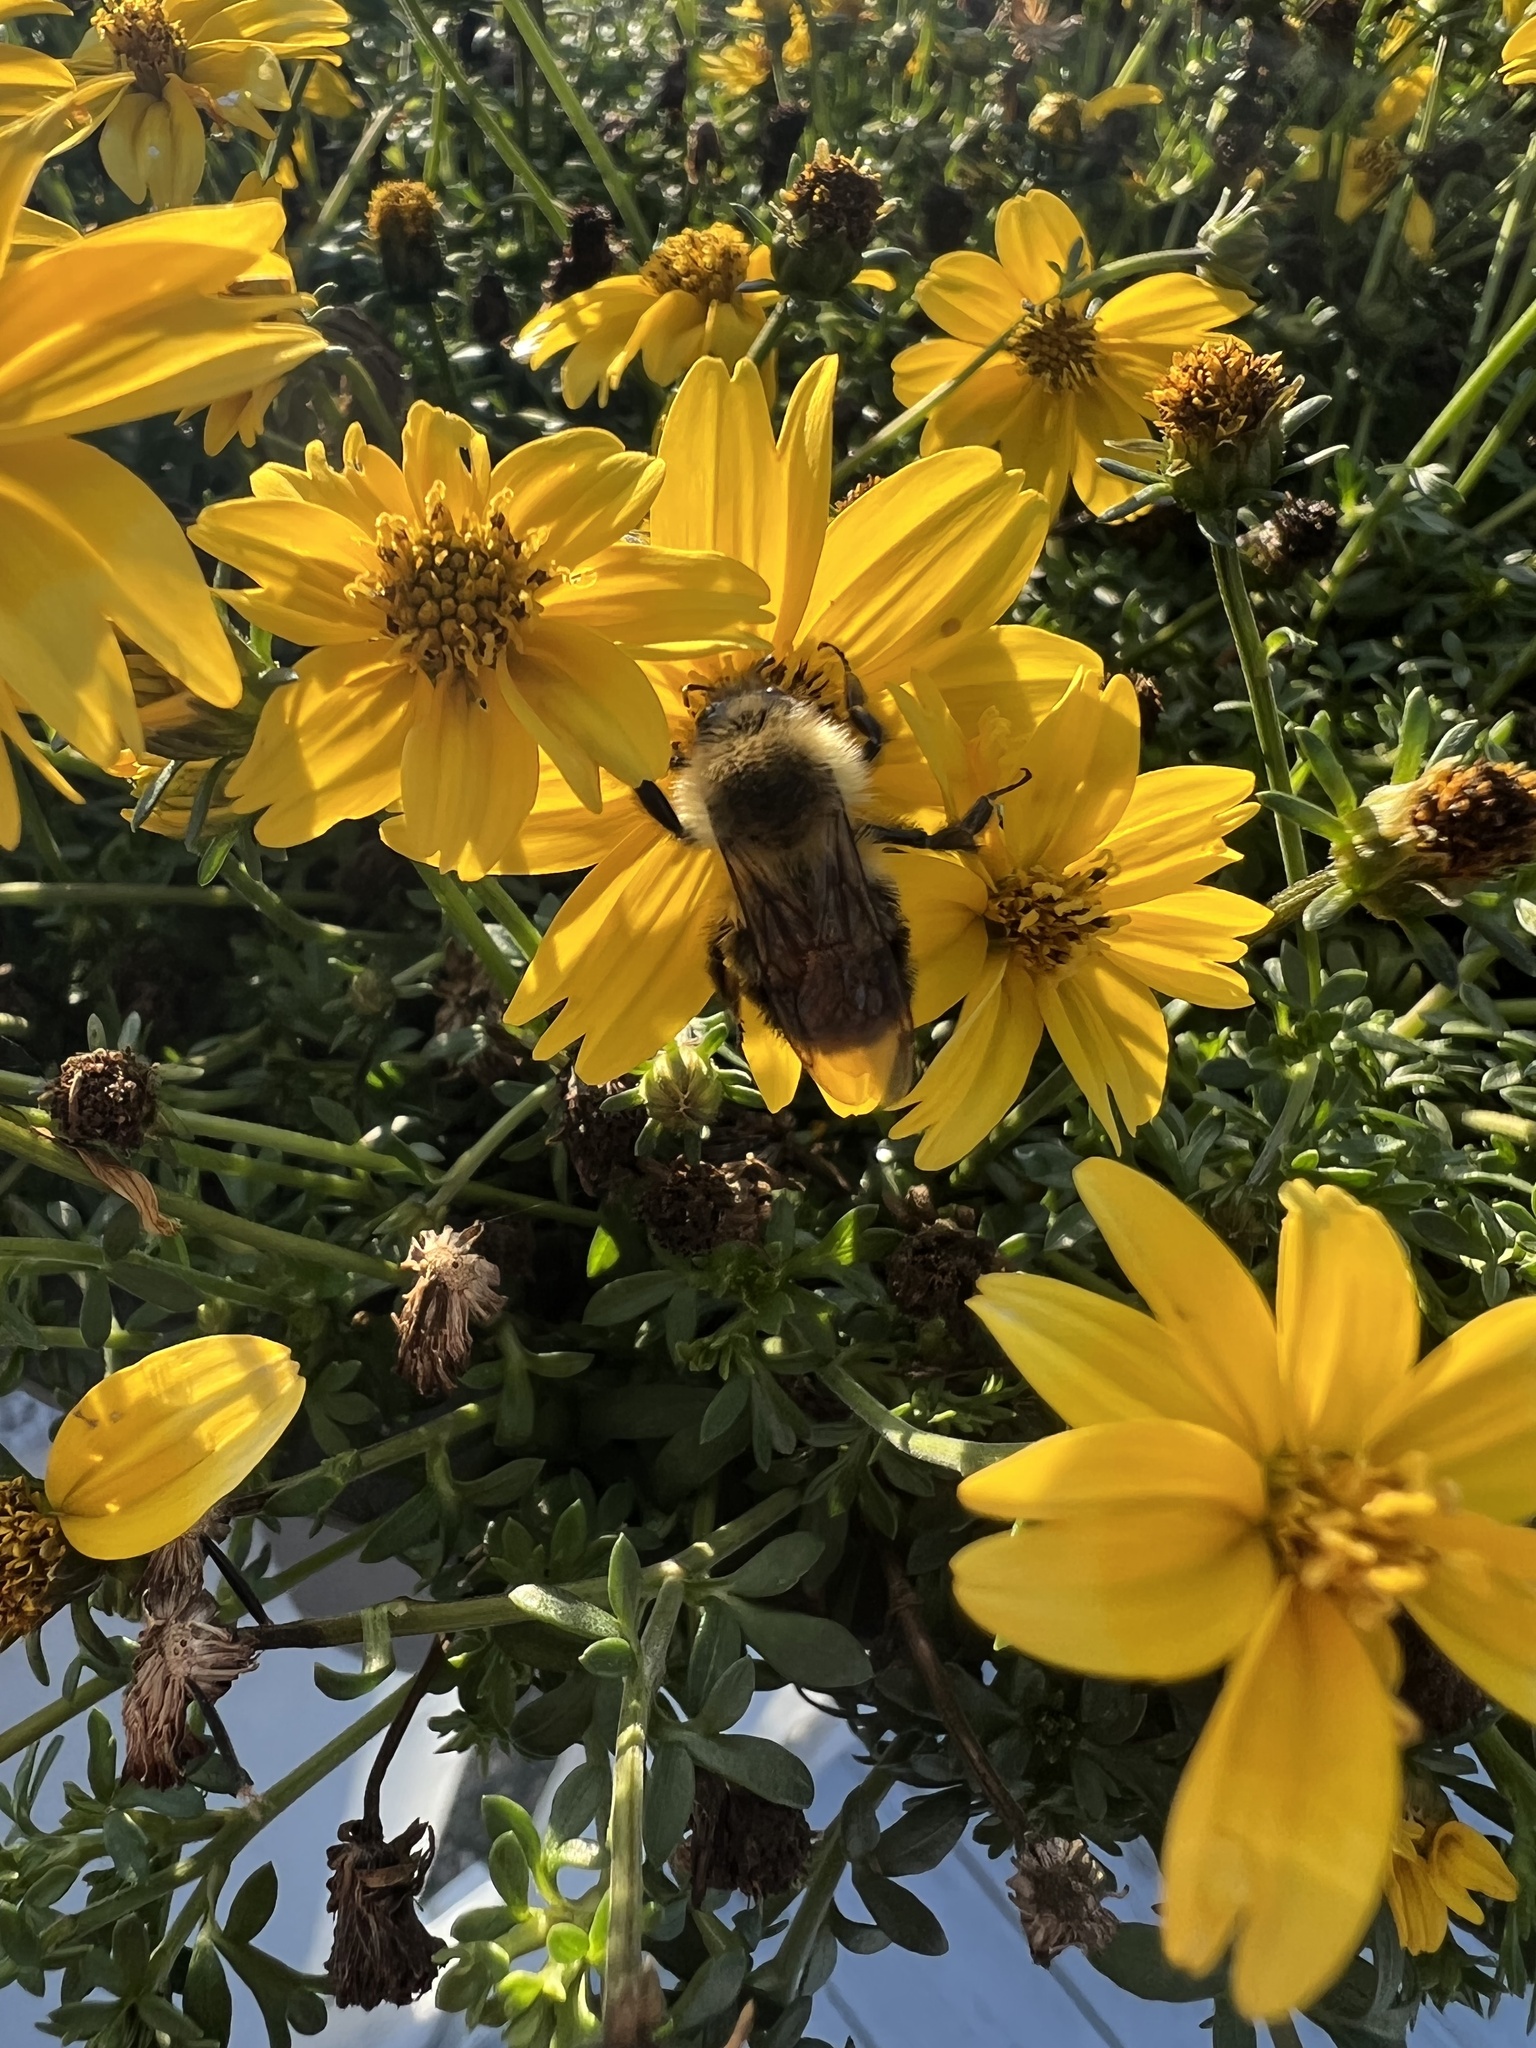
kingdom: Animalia
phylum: Arthropoda
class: Insecta
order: Hymenoptera
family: Apidae
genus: Bombus
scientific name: Bombus impatiens
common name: Common eastern bumble bee
